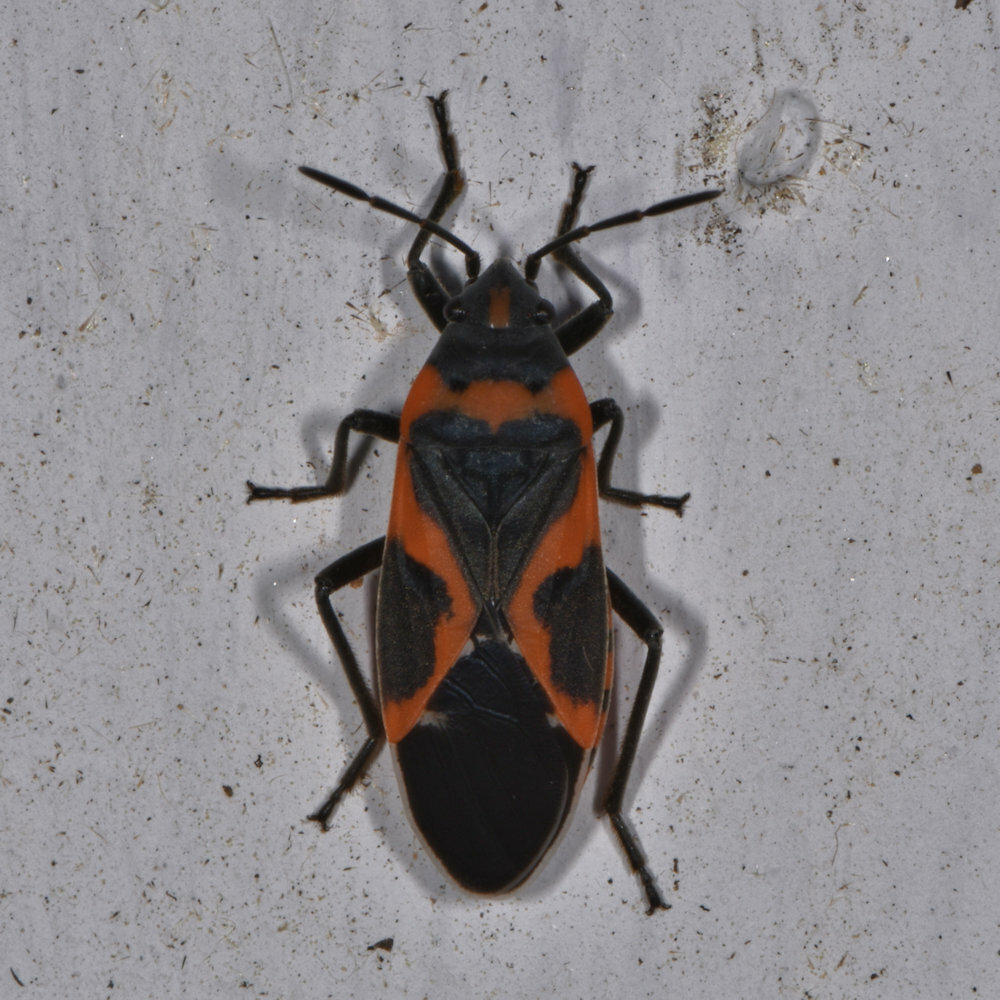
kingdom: Animalia
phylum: Arthropoda
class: Insecta
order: Hemiptera
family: Lygaeidae
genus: Lygaeus
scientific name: Lygaeus kalmii
